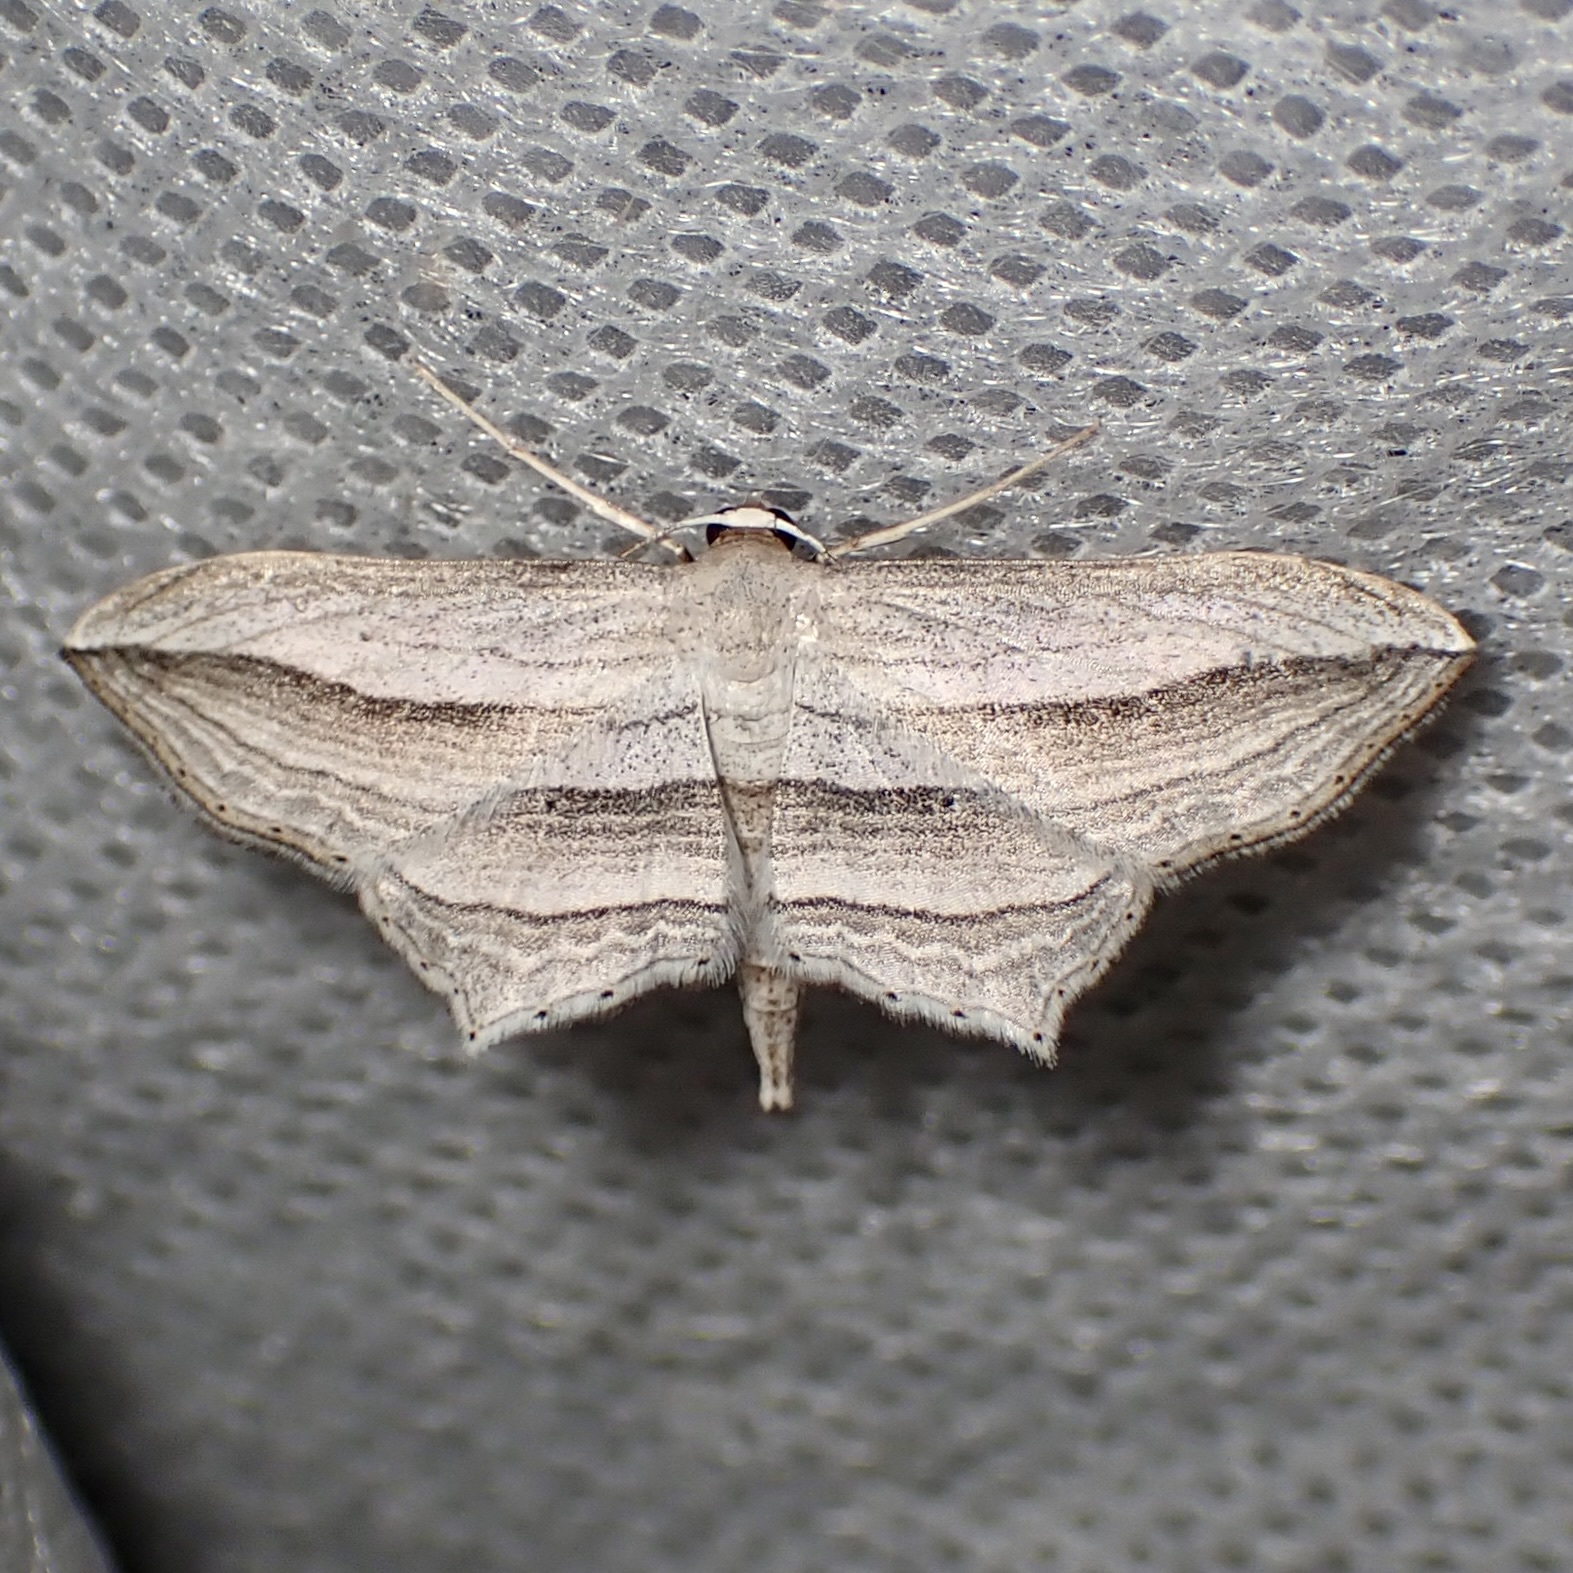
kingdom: Animalia
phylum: Arthropoda
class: Insecta
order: Lepidoptera
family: Geometridae
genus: Arcobara
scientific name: Arcobara multilineata
